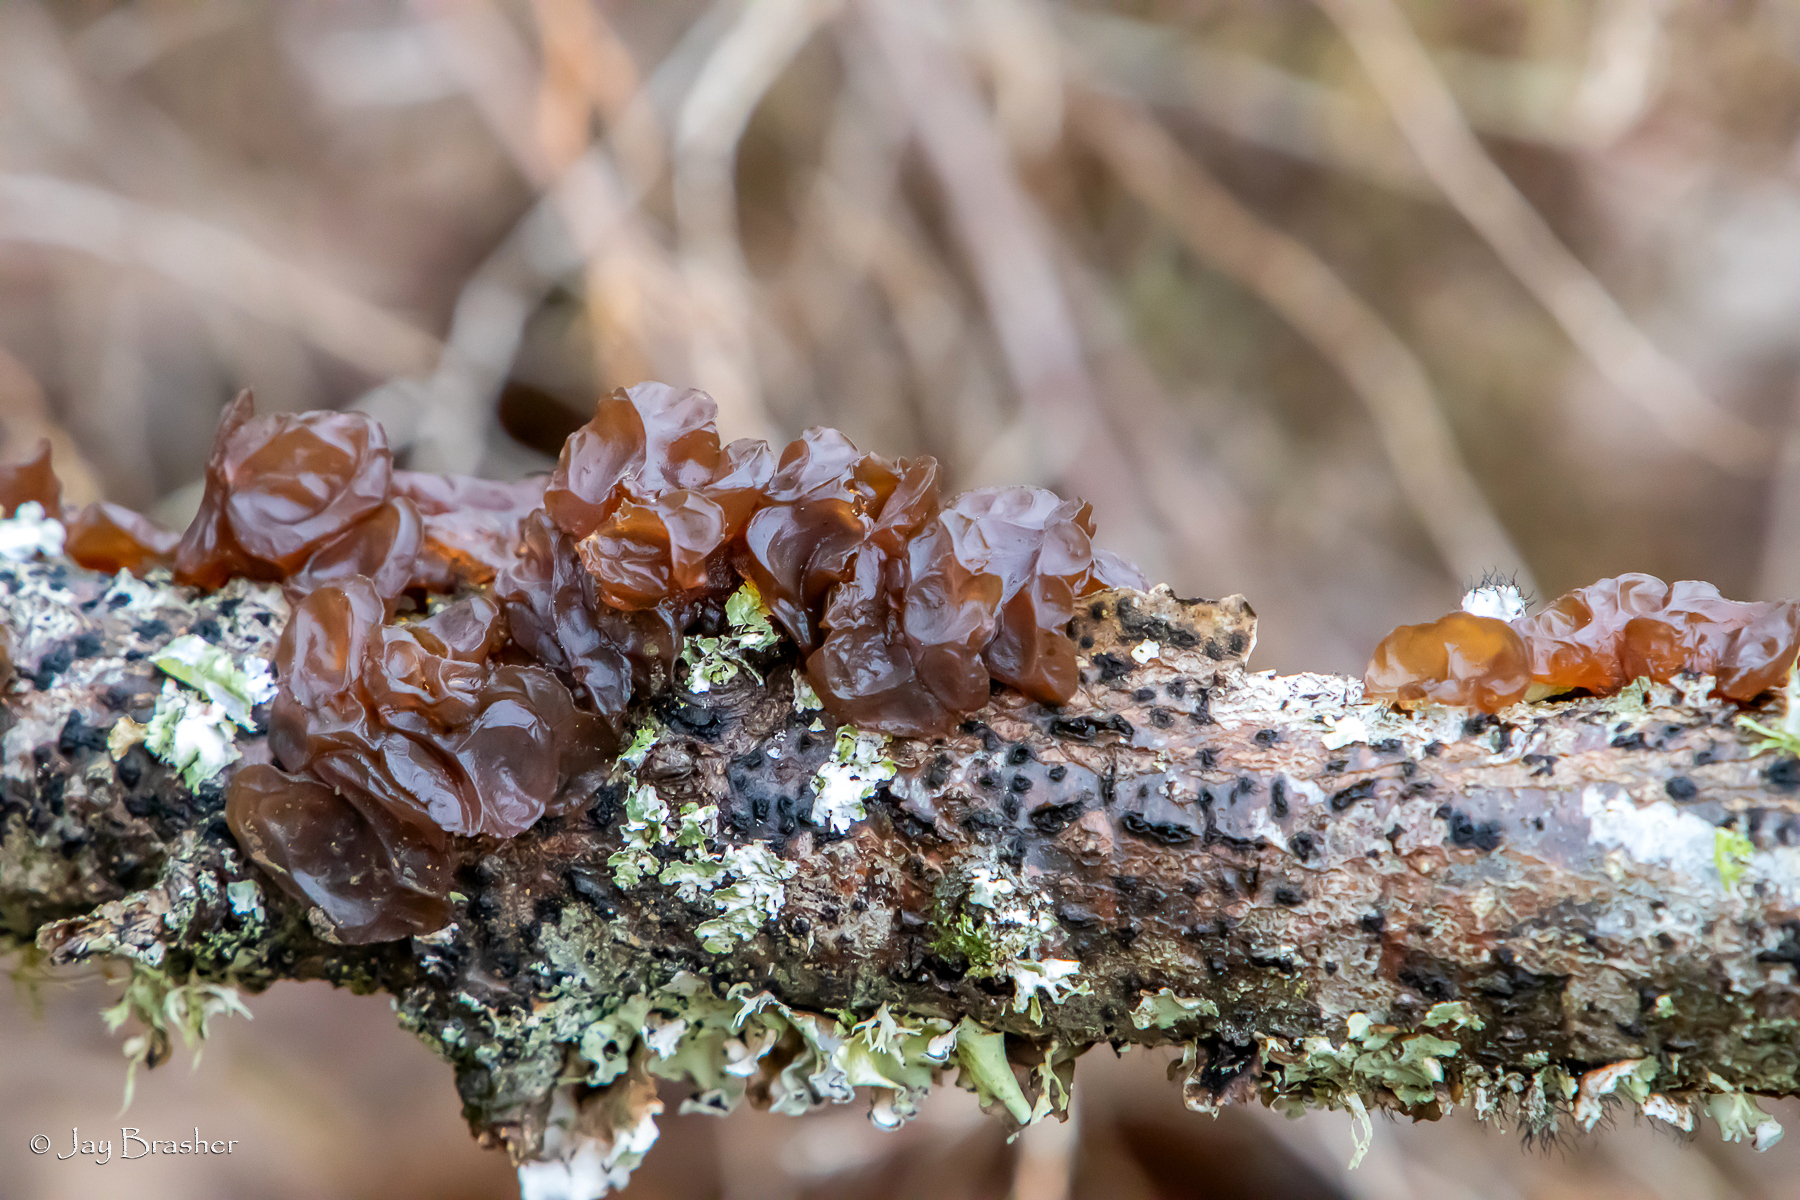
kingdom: Fungi
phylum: Basidiomycota
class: Agaricomycetes
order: Auriculariales
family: Auriculariaceae
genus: Exidia
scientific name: Exidia
